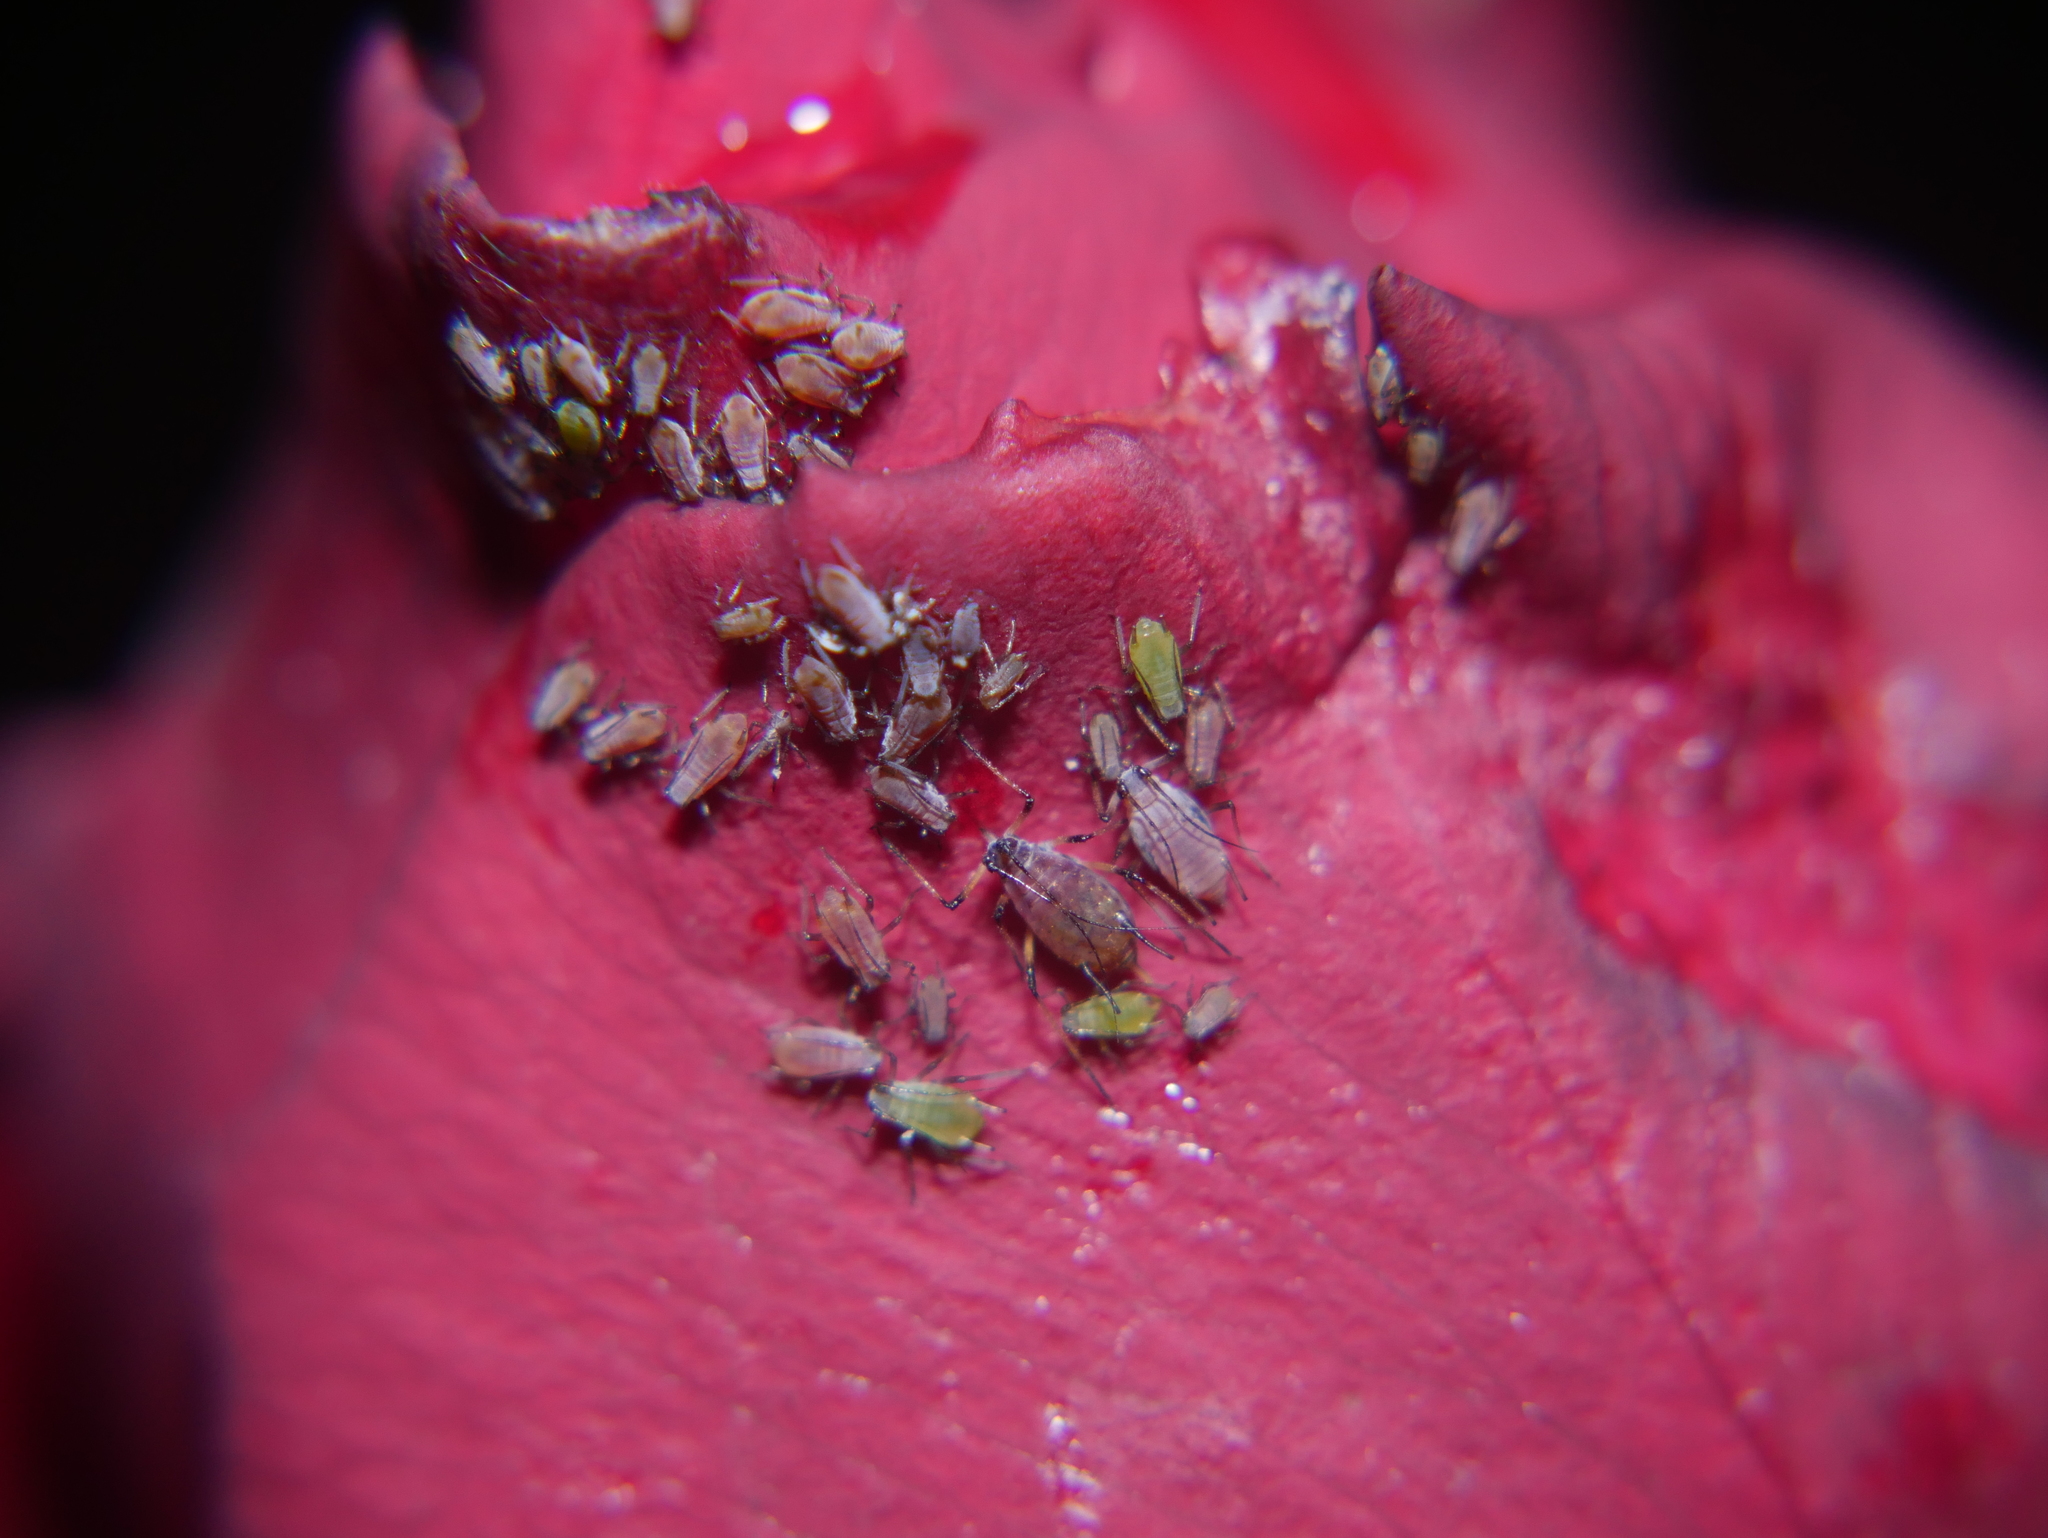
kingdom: Animalia
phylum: Arthropoda
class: Insecta
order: Hemiptera
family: Aphididae
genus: Macrosiphum
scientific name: Macrosiphum rosae
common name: Rose aphid
